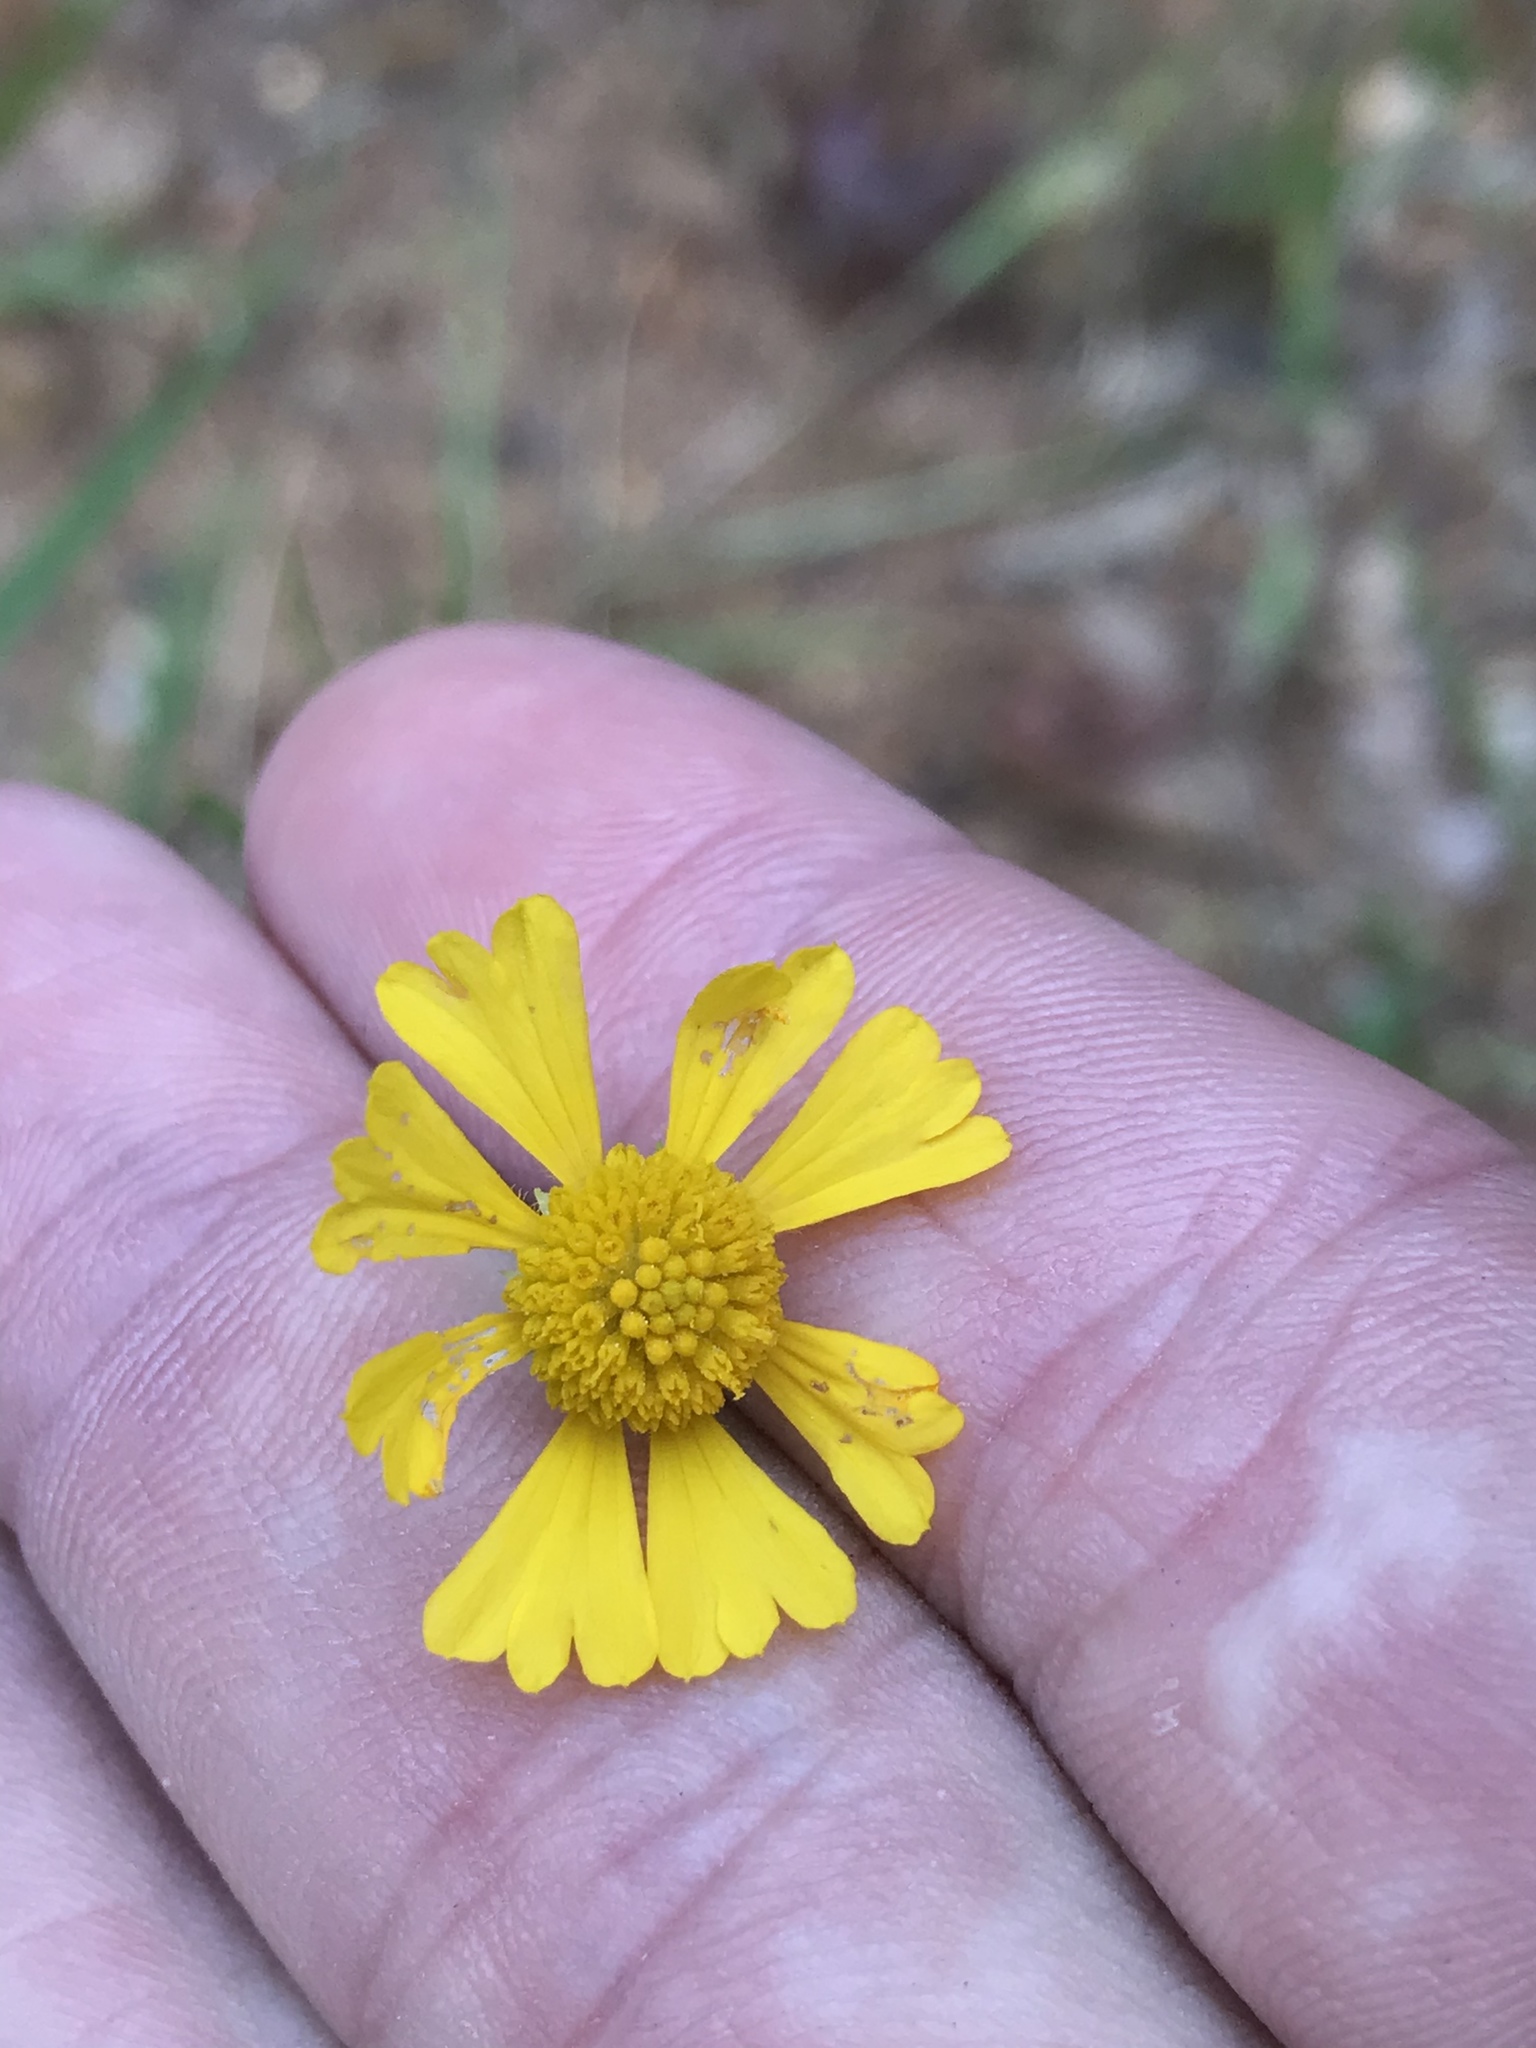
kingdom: Plantae
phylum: Tracheophyta
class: Magnoliopsida
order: Asterales
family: Asteraceae
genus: Helenium
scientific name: Helenium amarum
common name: Bitter sneezeweed
